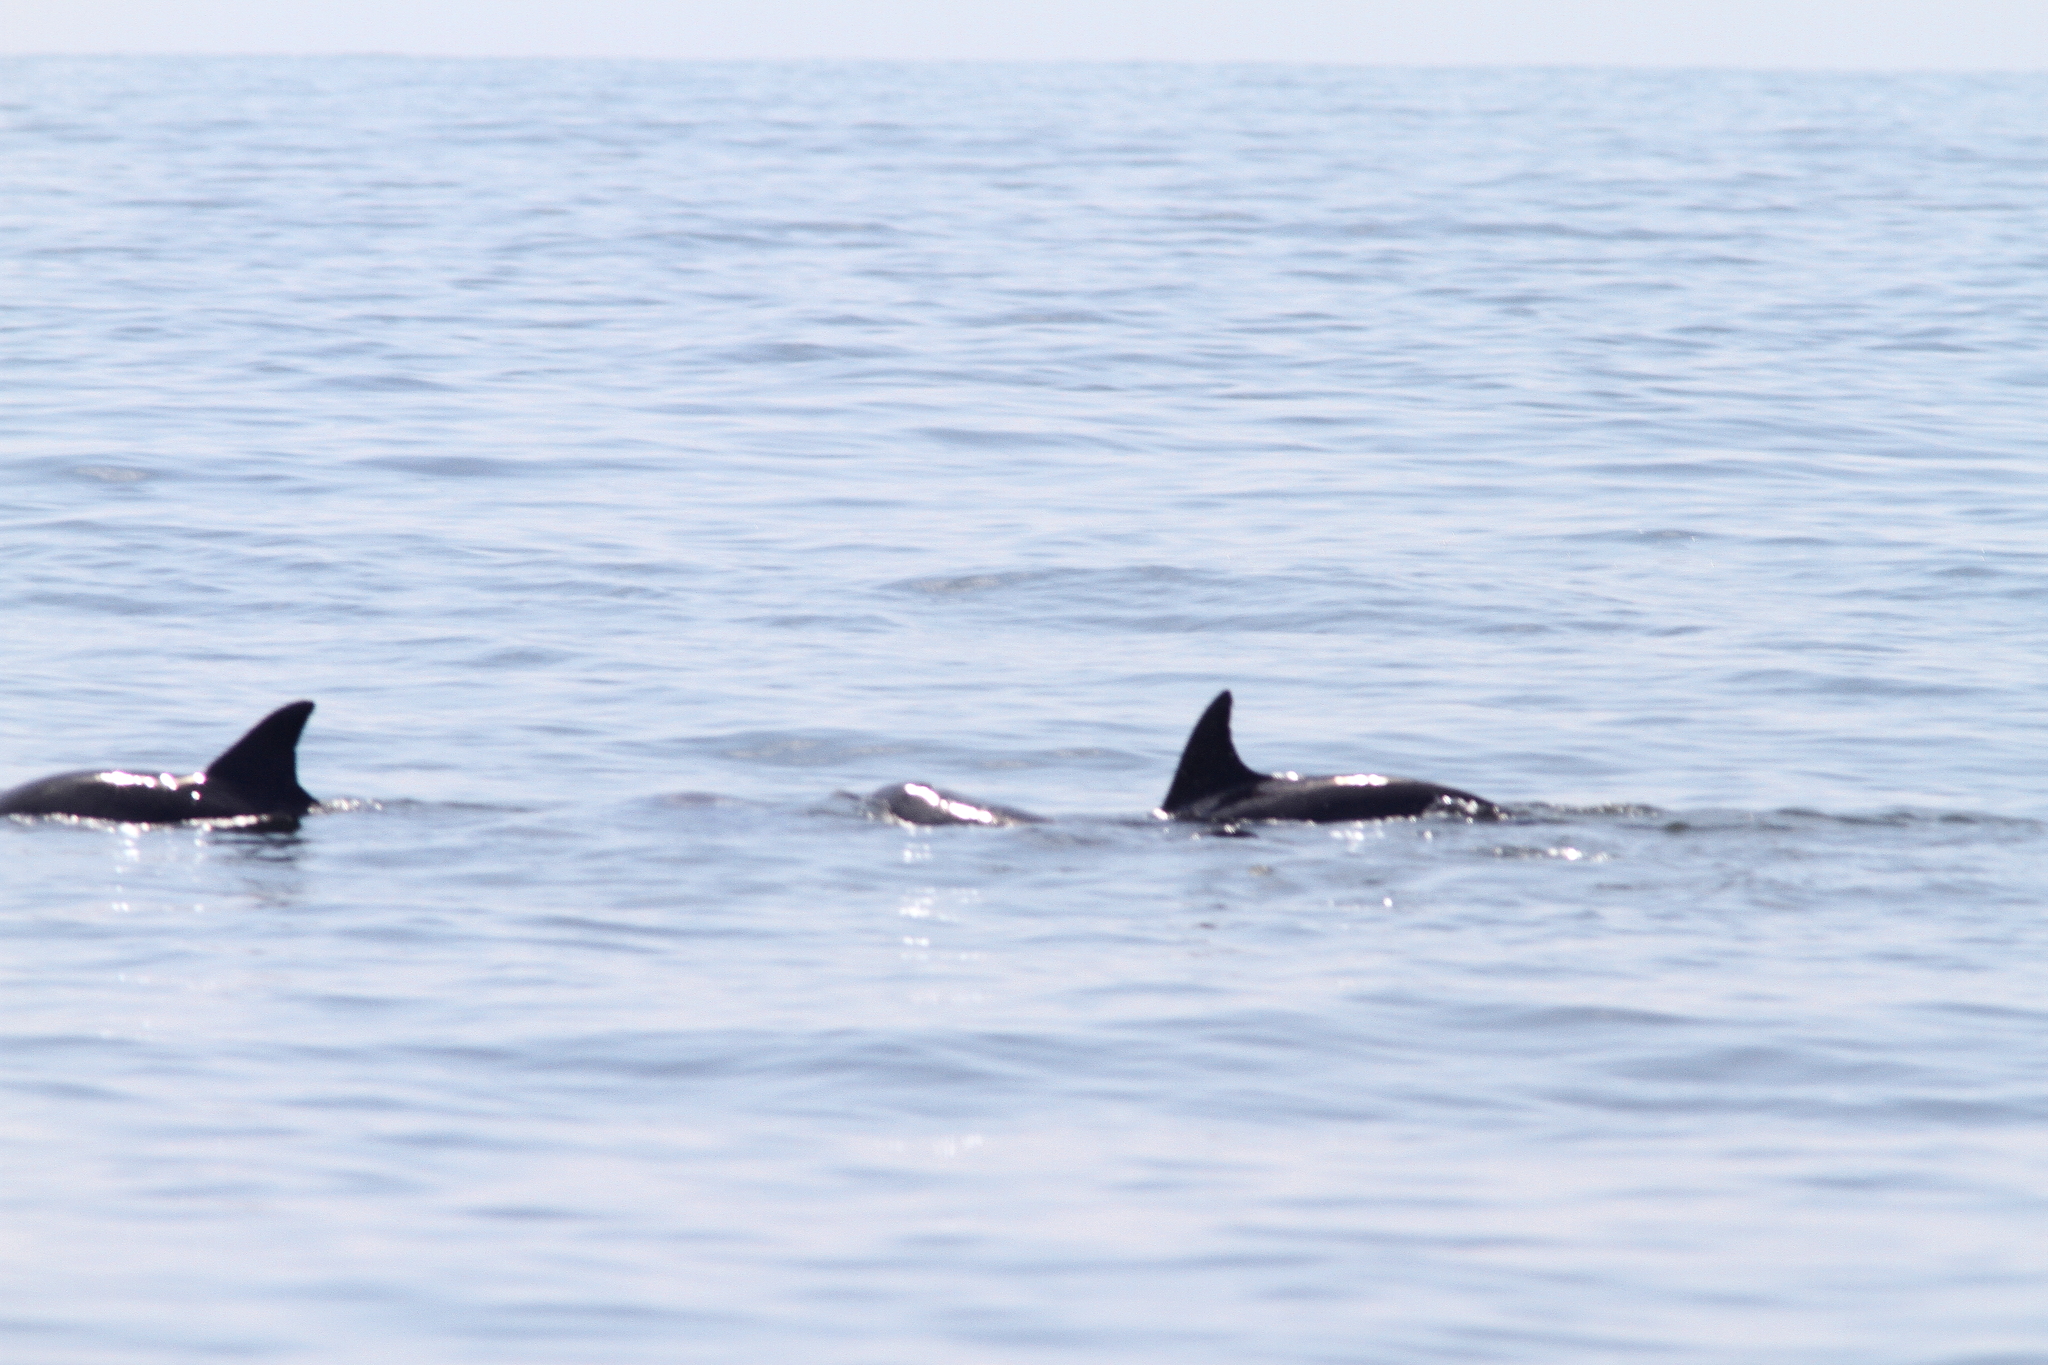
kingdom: Animalia
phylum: Chordata
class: Mammalia
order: Cetacea
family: Delphinidae
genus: Tursiops
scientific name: Tursiops truncatus
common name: Bottlenose dolphin
